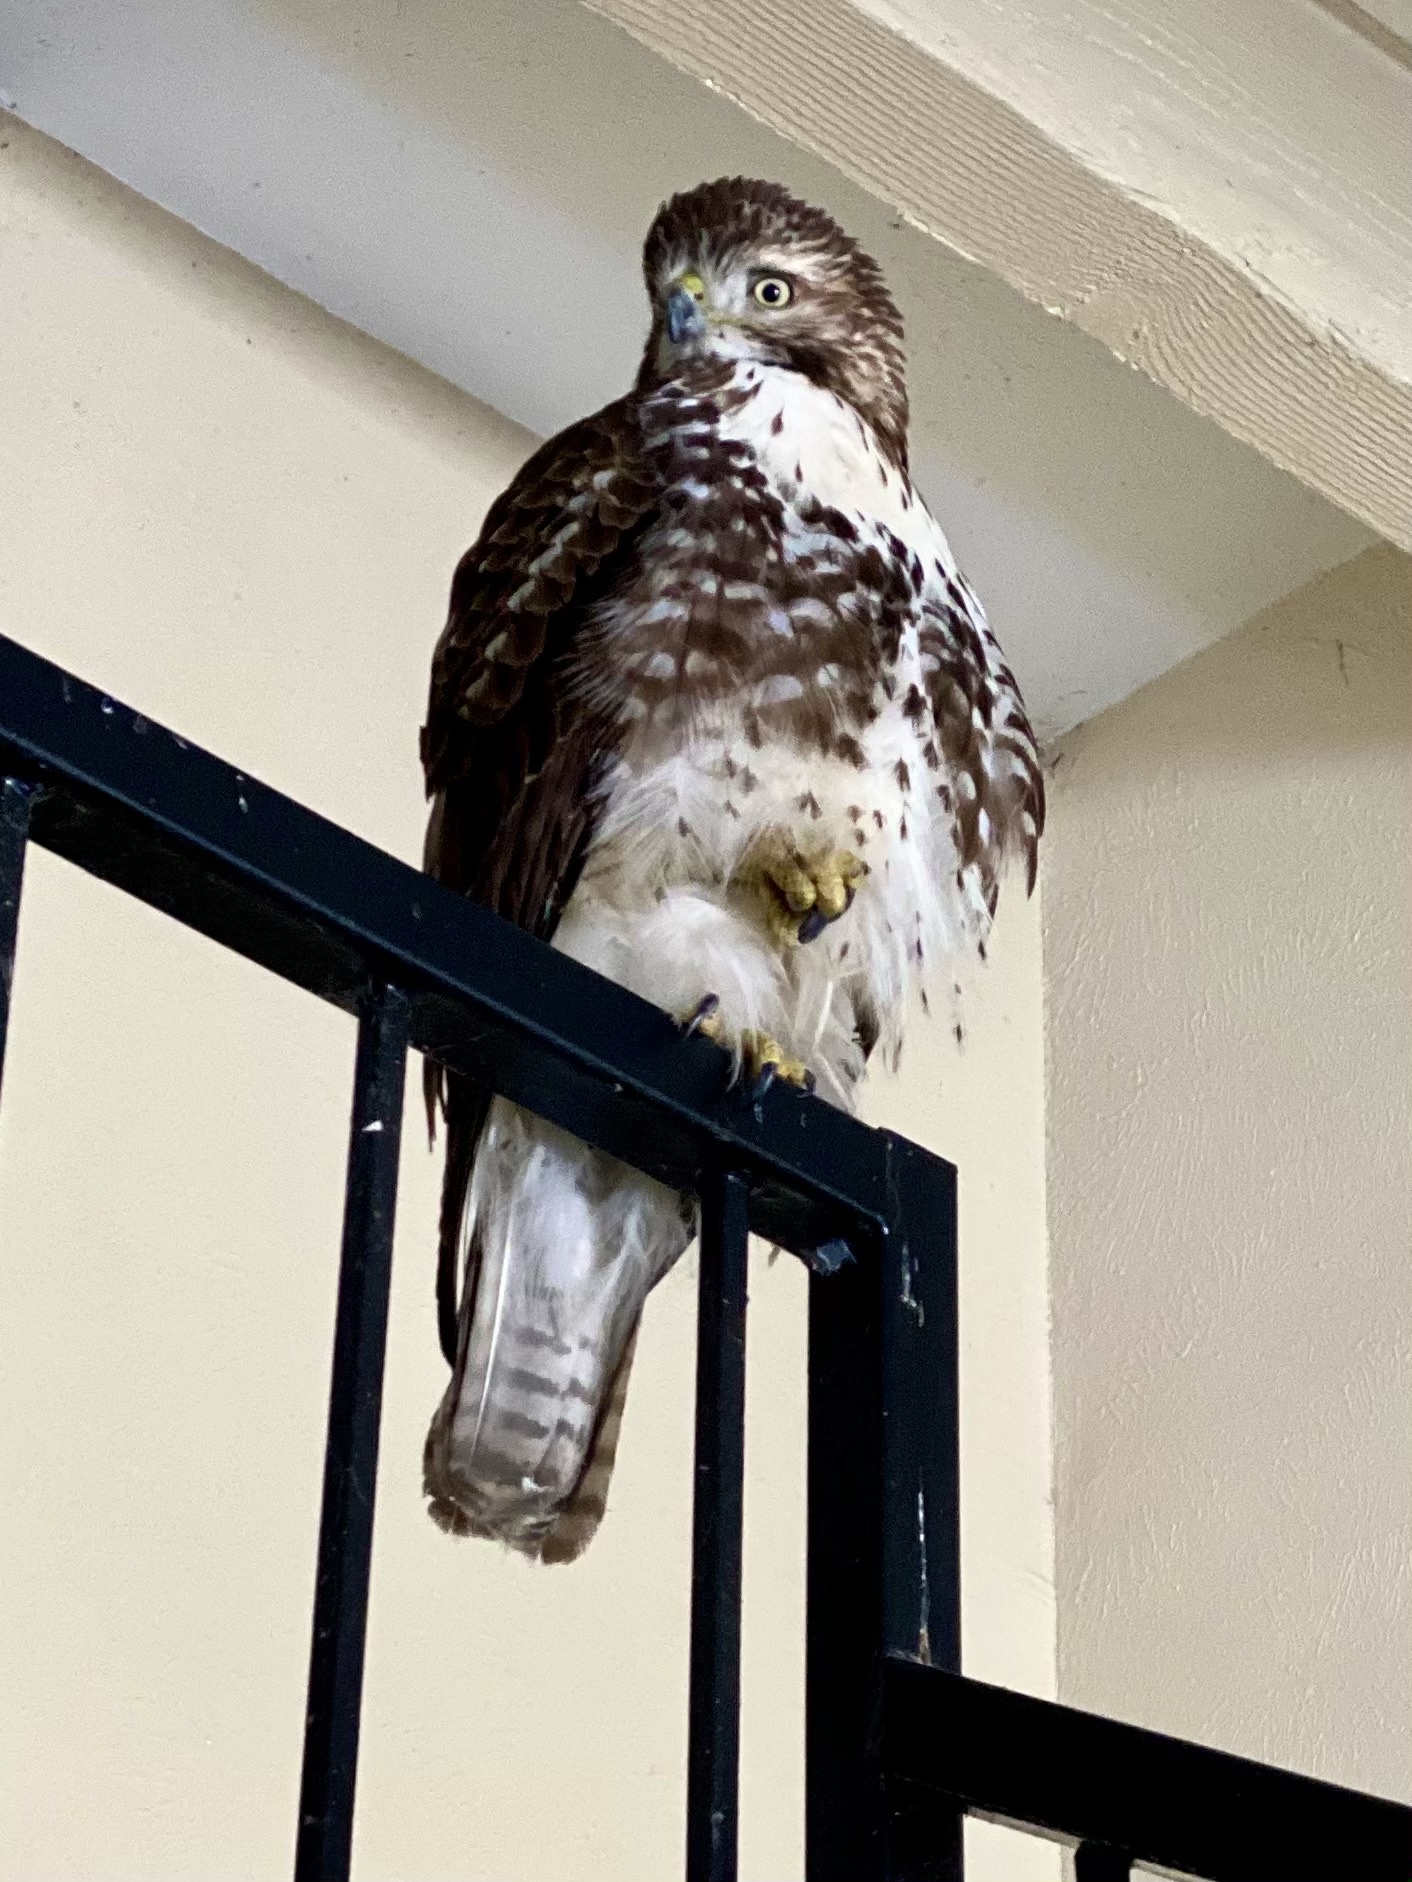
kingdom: Animalia
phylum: Chordata
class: Aves
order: Accipitriformes
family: Accipitridae
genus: Buteo
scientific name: Buteo jamaicensis
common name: Red-tailed hawk
